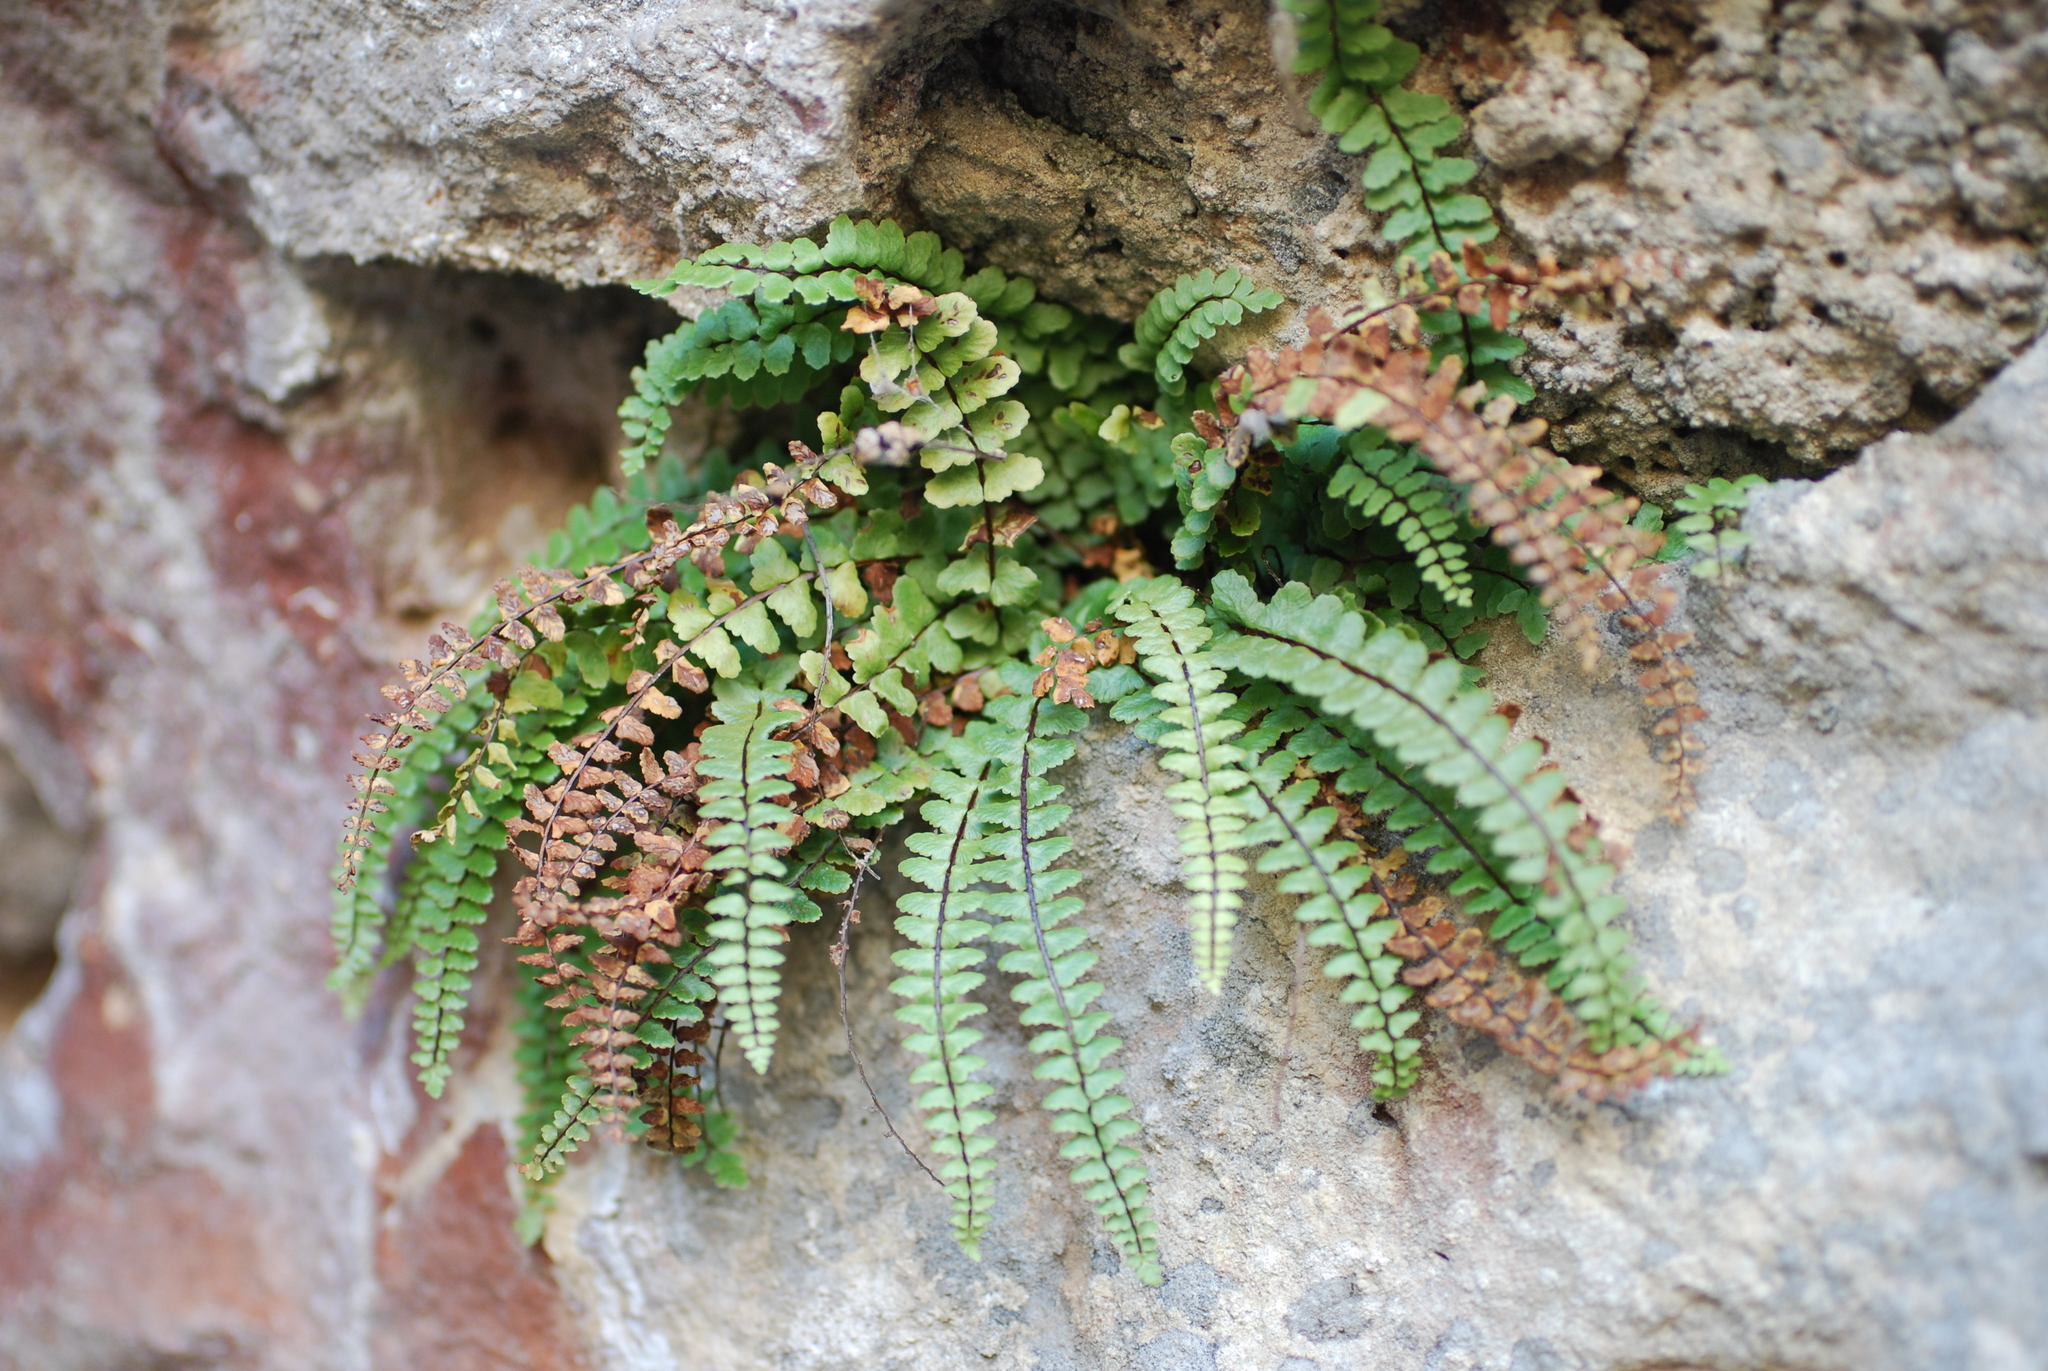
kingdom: Plantae
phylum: Tracheophyta
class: Polypodiopsida
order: Polypodiales
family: Aspleniaceae
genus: Asplenium
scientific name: Asplenium trichomanes
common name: Maidenhair spleenwort
